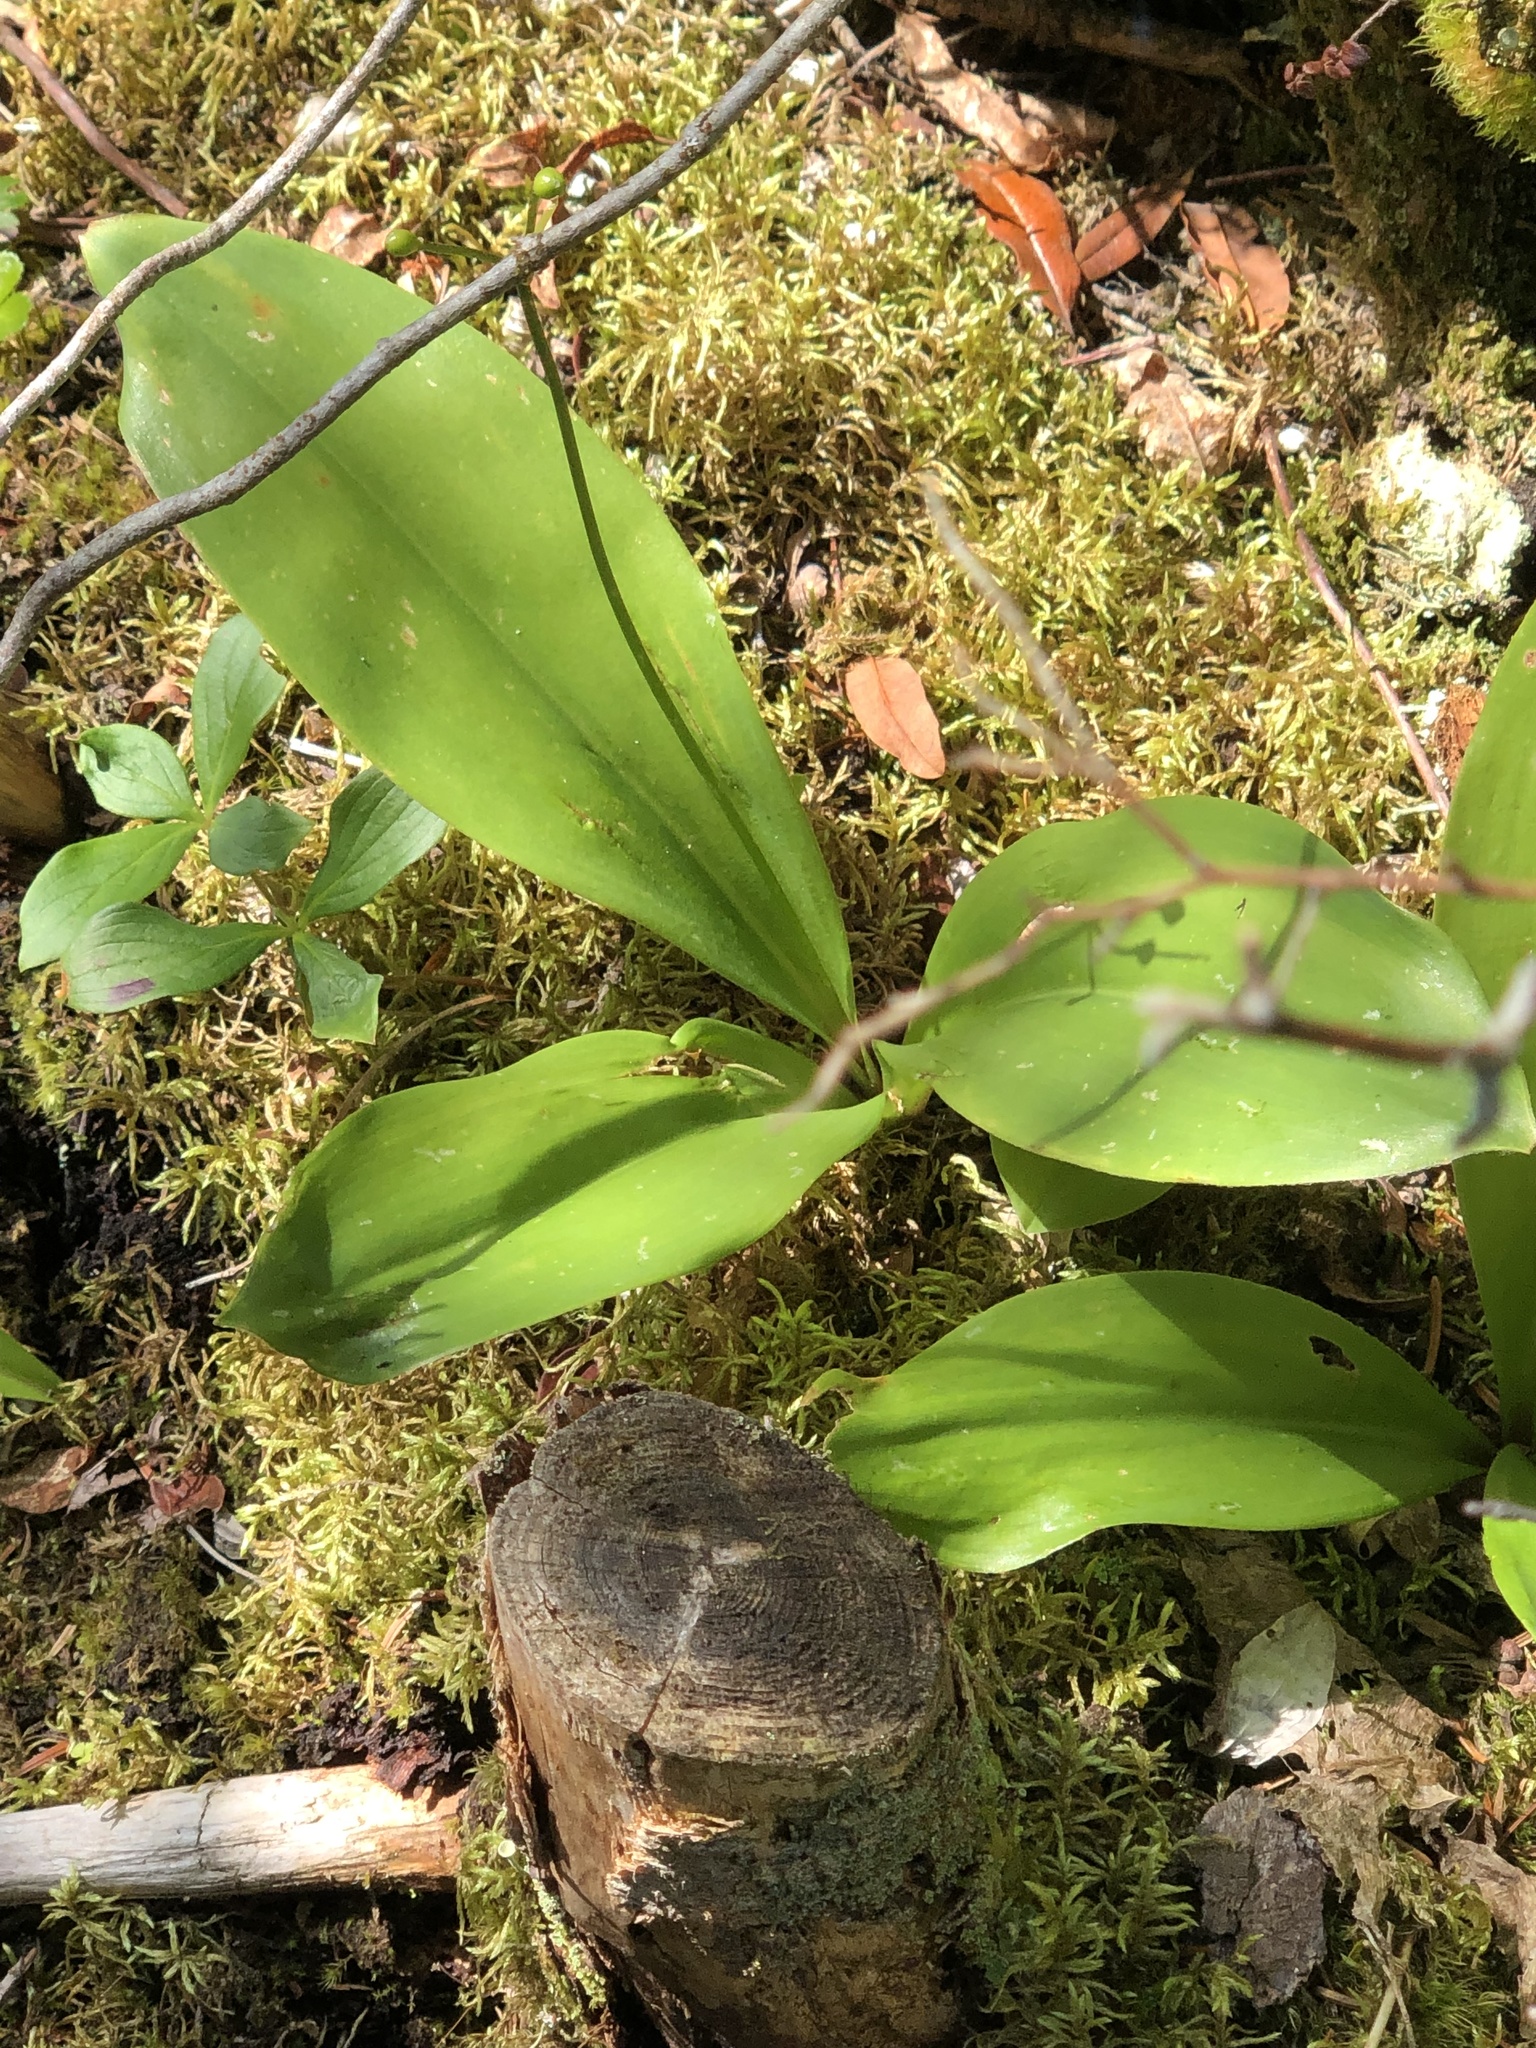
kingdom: Plantae
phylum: Tracheophyta
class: Liliopsida
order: Liliales
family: Liliaceae
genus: Clintonia
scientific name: Clintonia borealis
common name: Yellow clintonia
